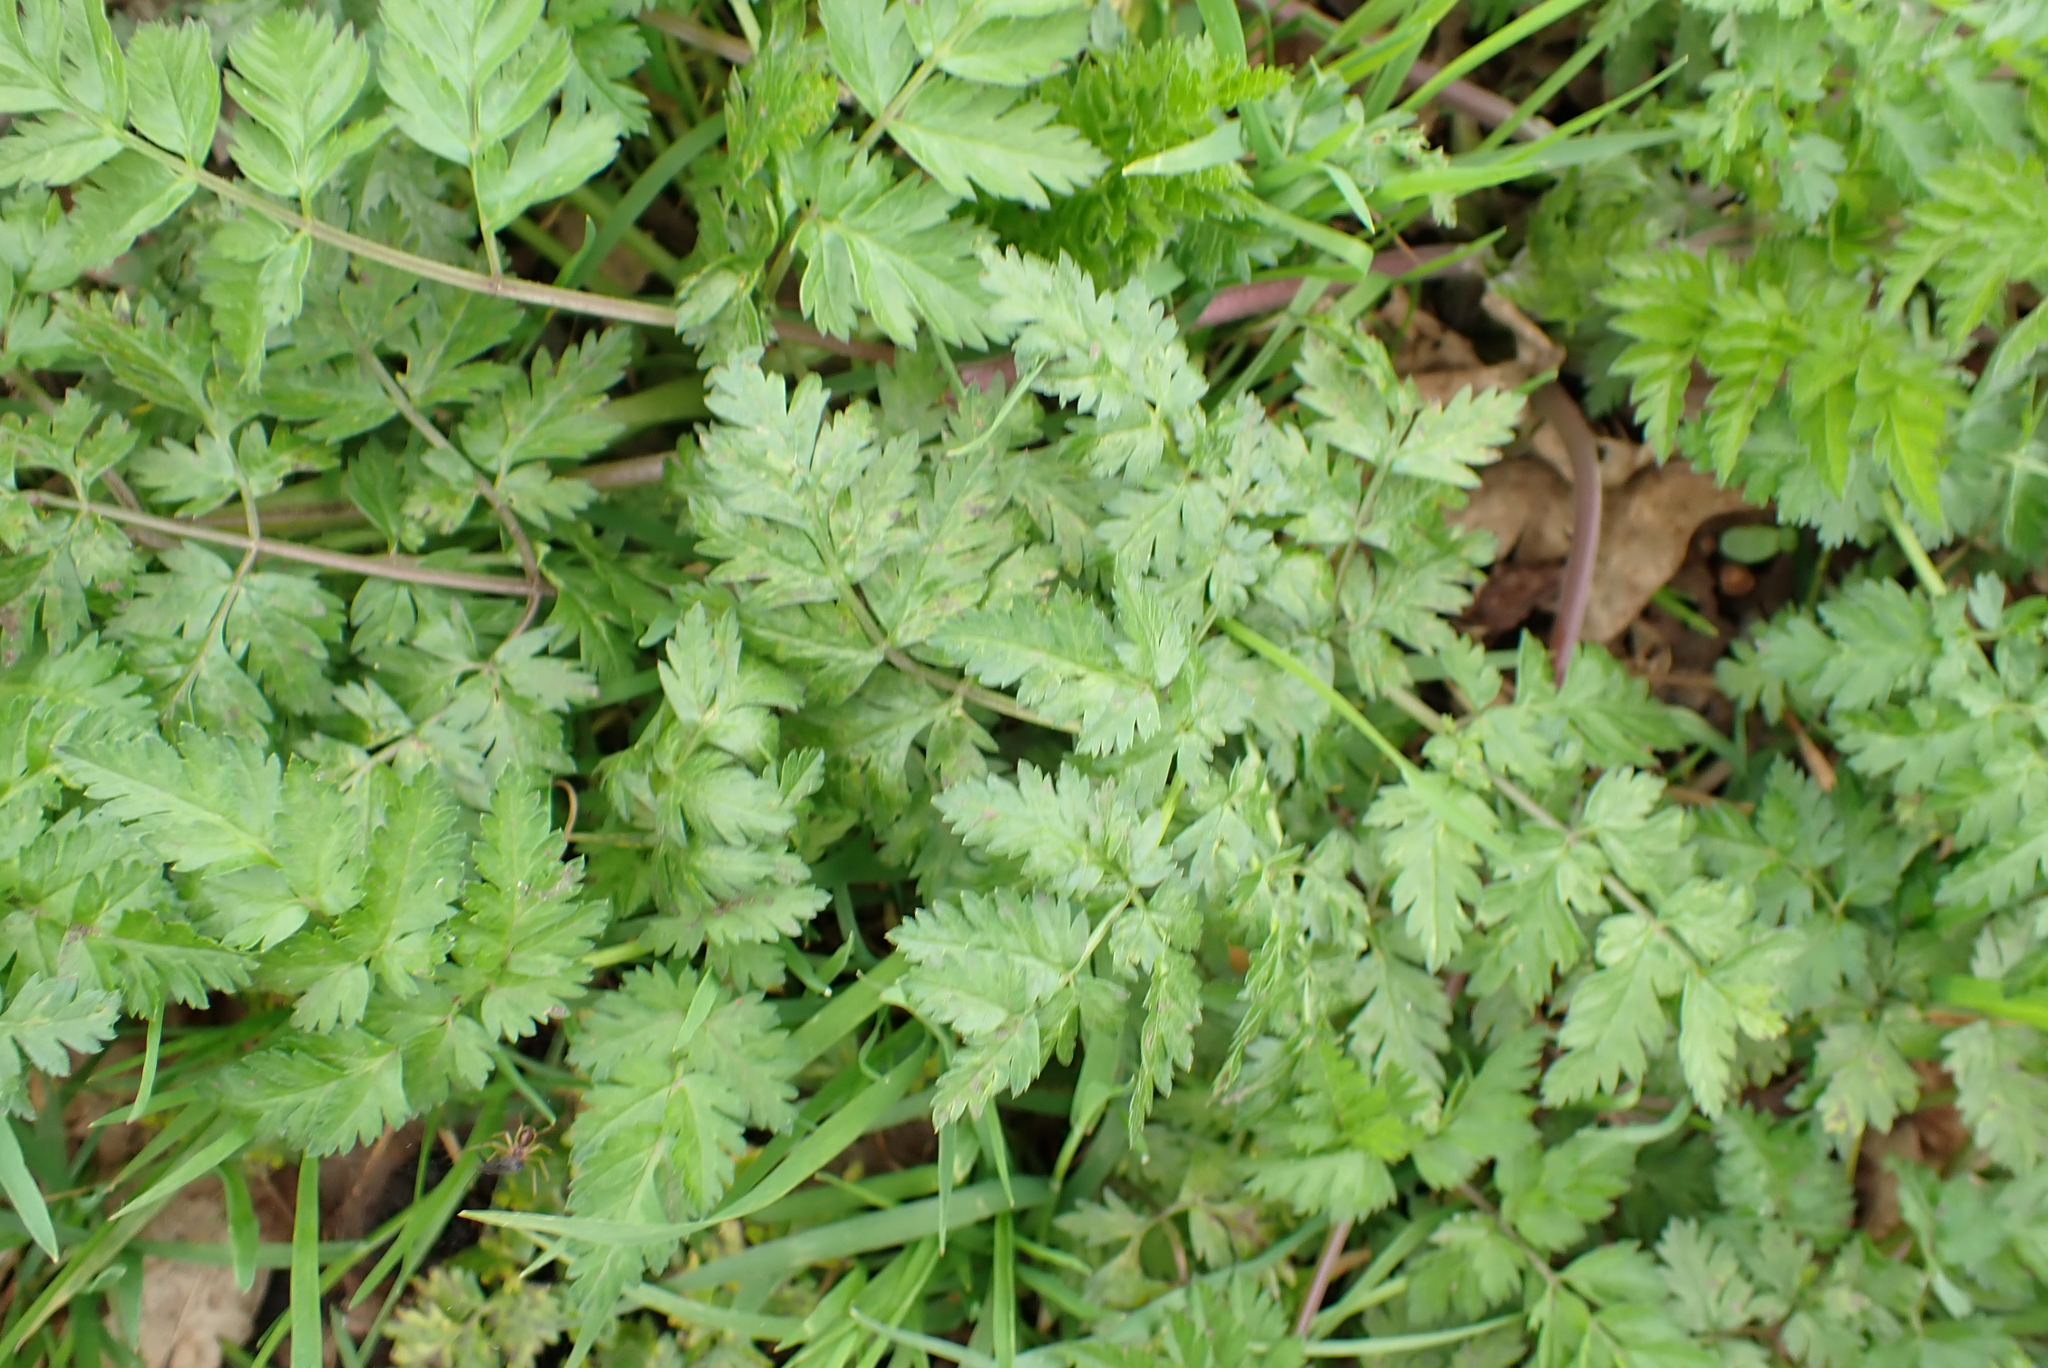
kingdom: Plantae
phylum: Tracheophyta
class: Magnoliopsida
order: Apiales
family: Apiaceae
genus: Anthriscus
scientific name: Anthriscus sylvestris
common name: Cow parsley
